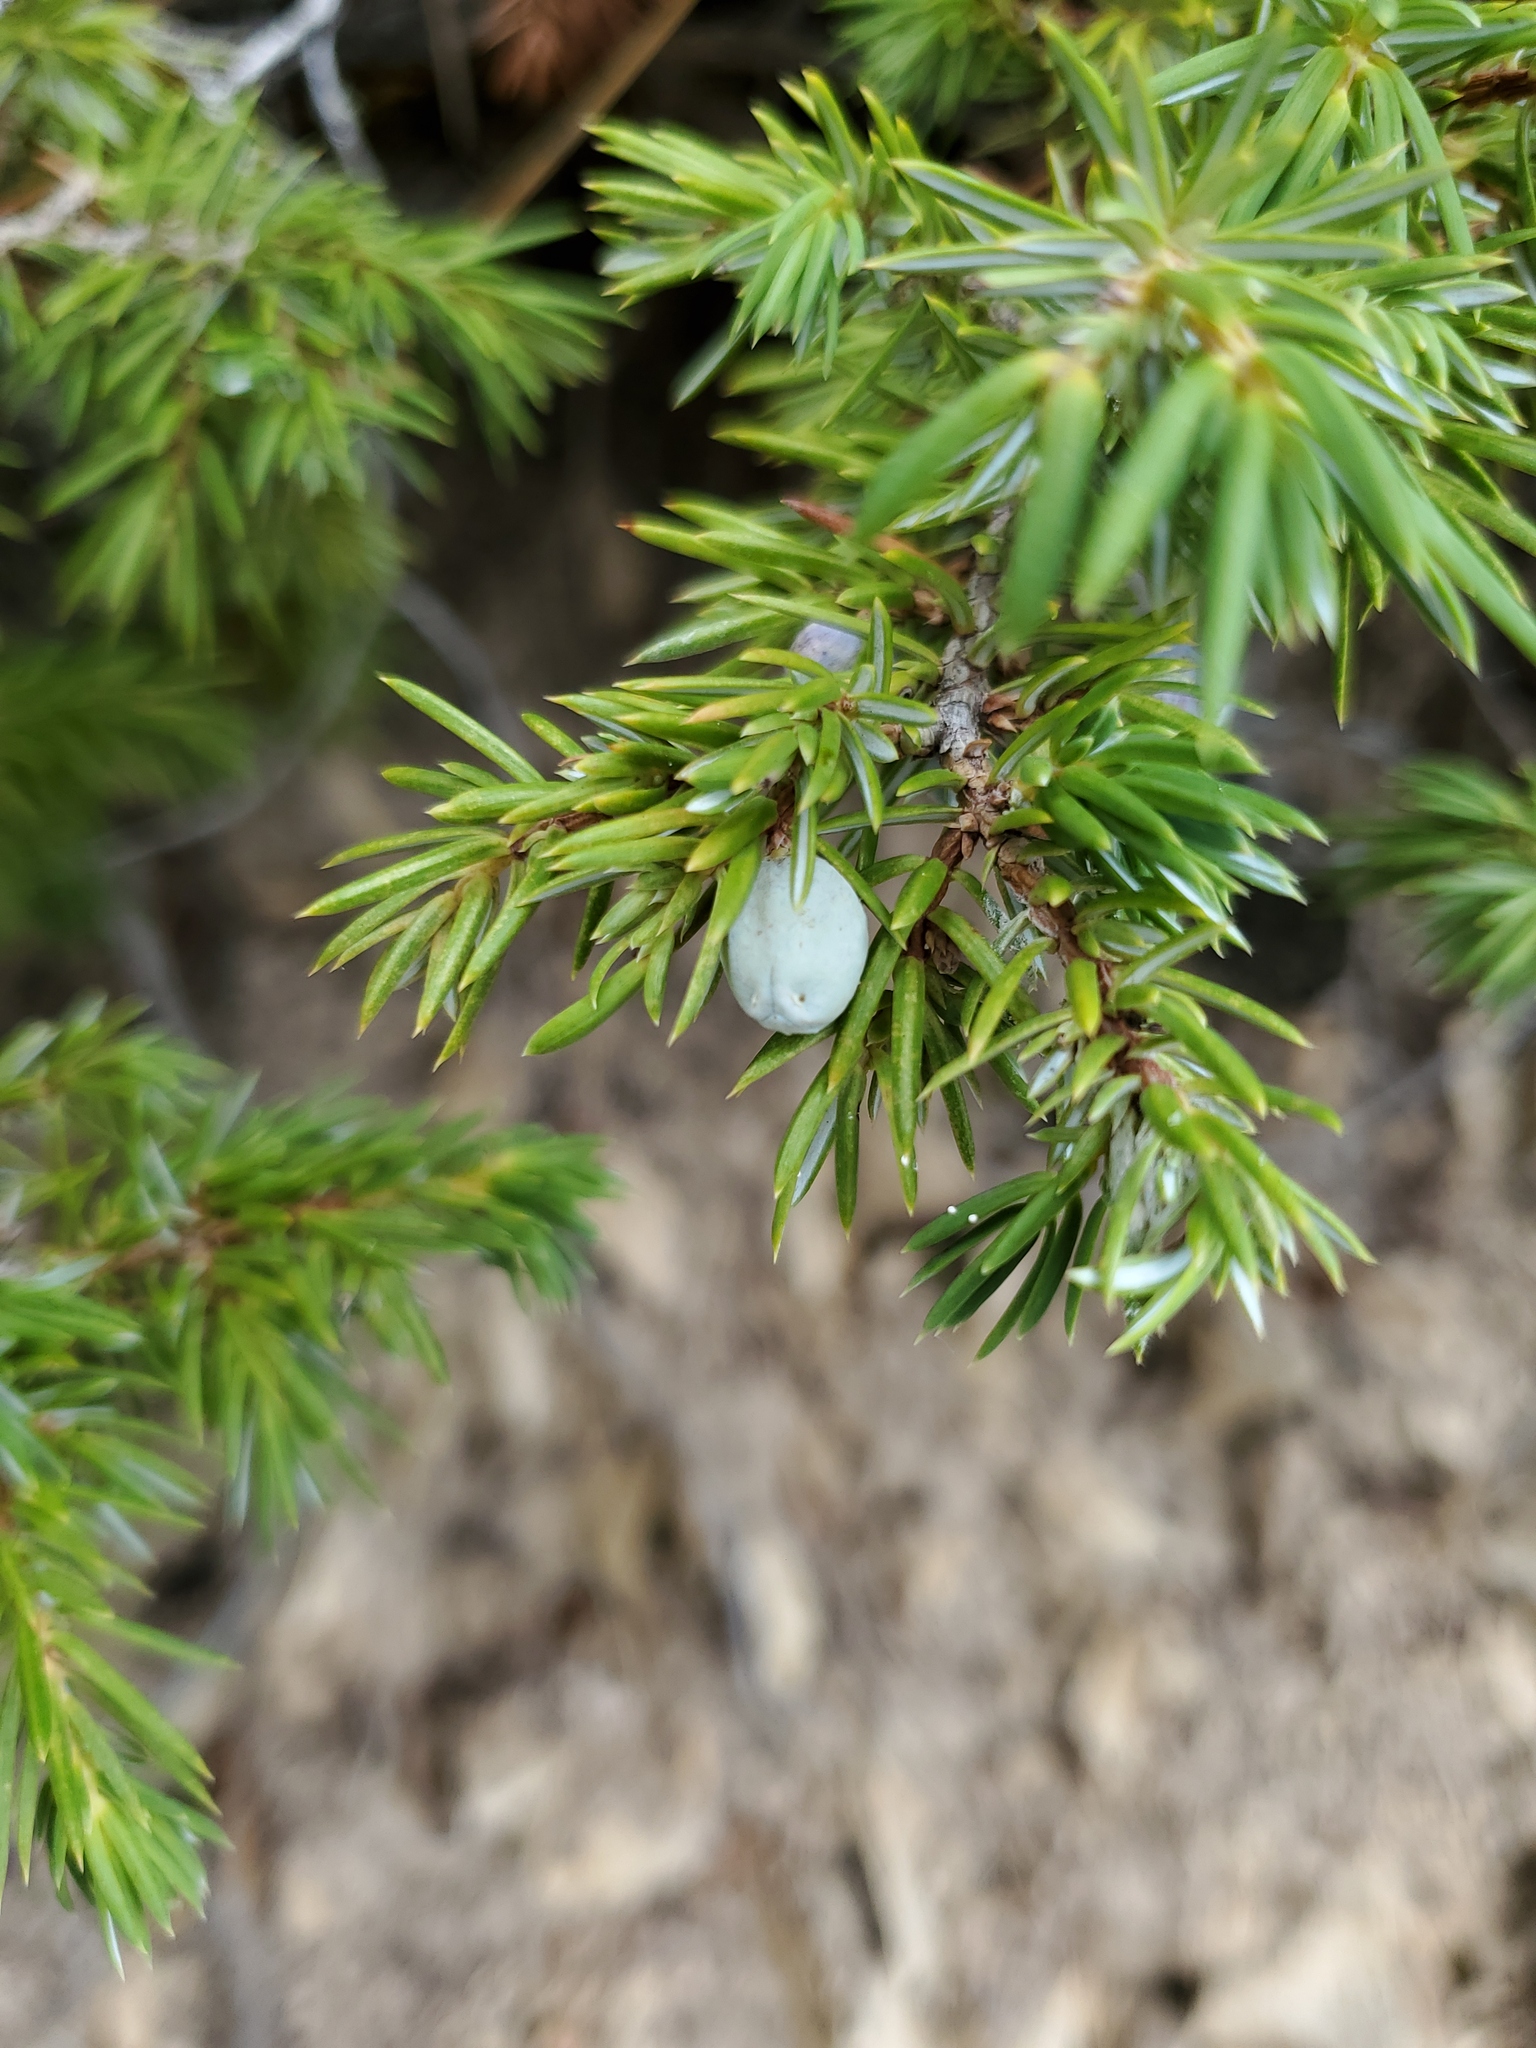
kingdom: Plantae
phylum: Tracheophyta
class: Pinopsida
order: Pinales
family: Cupressaceae
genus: Juniperus
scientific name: Juniperus communis
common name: Common juniper
